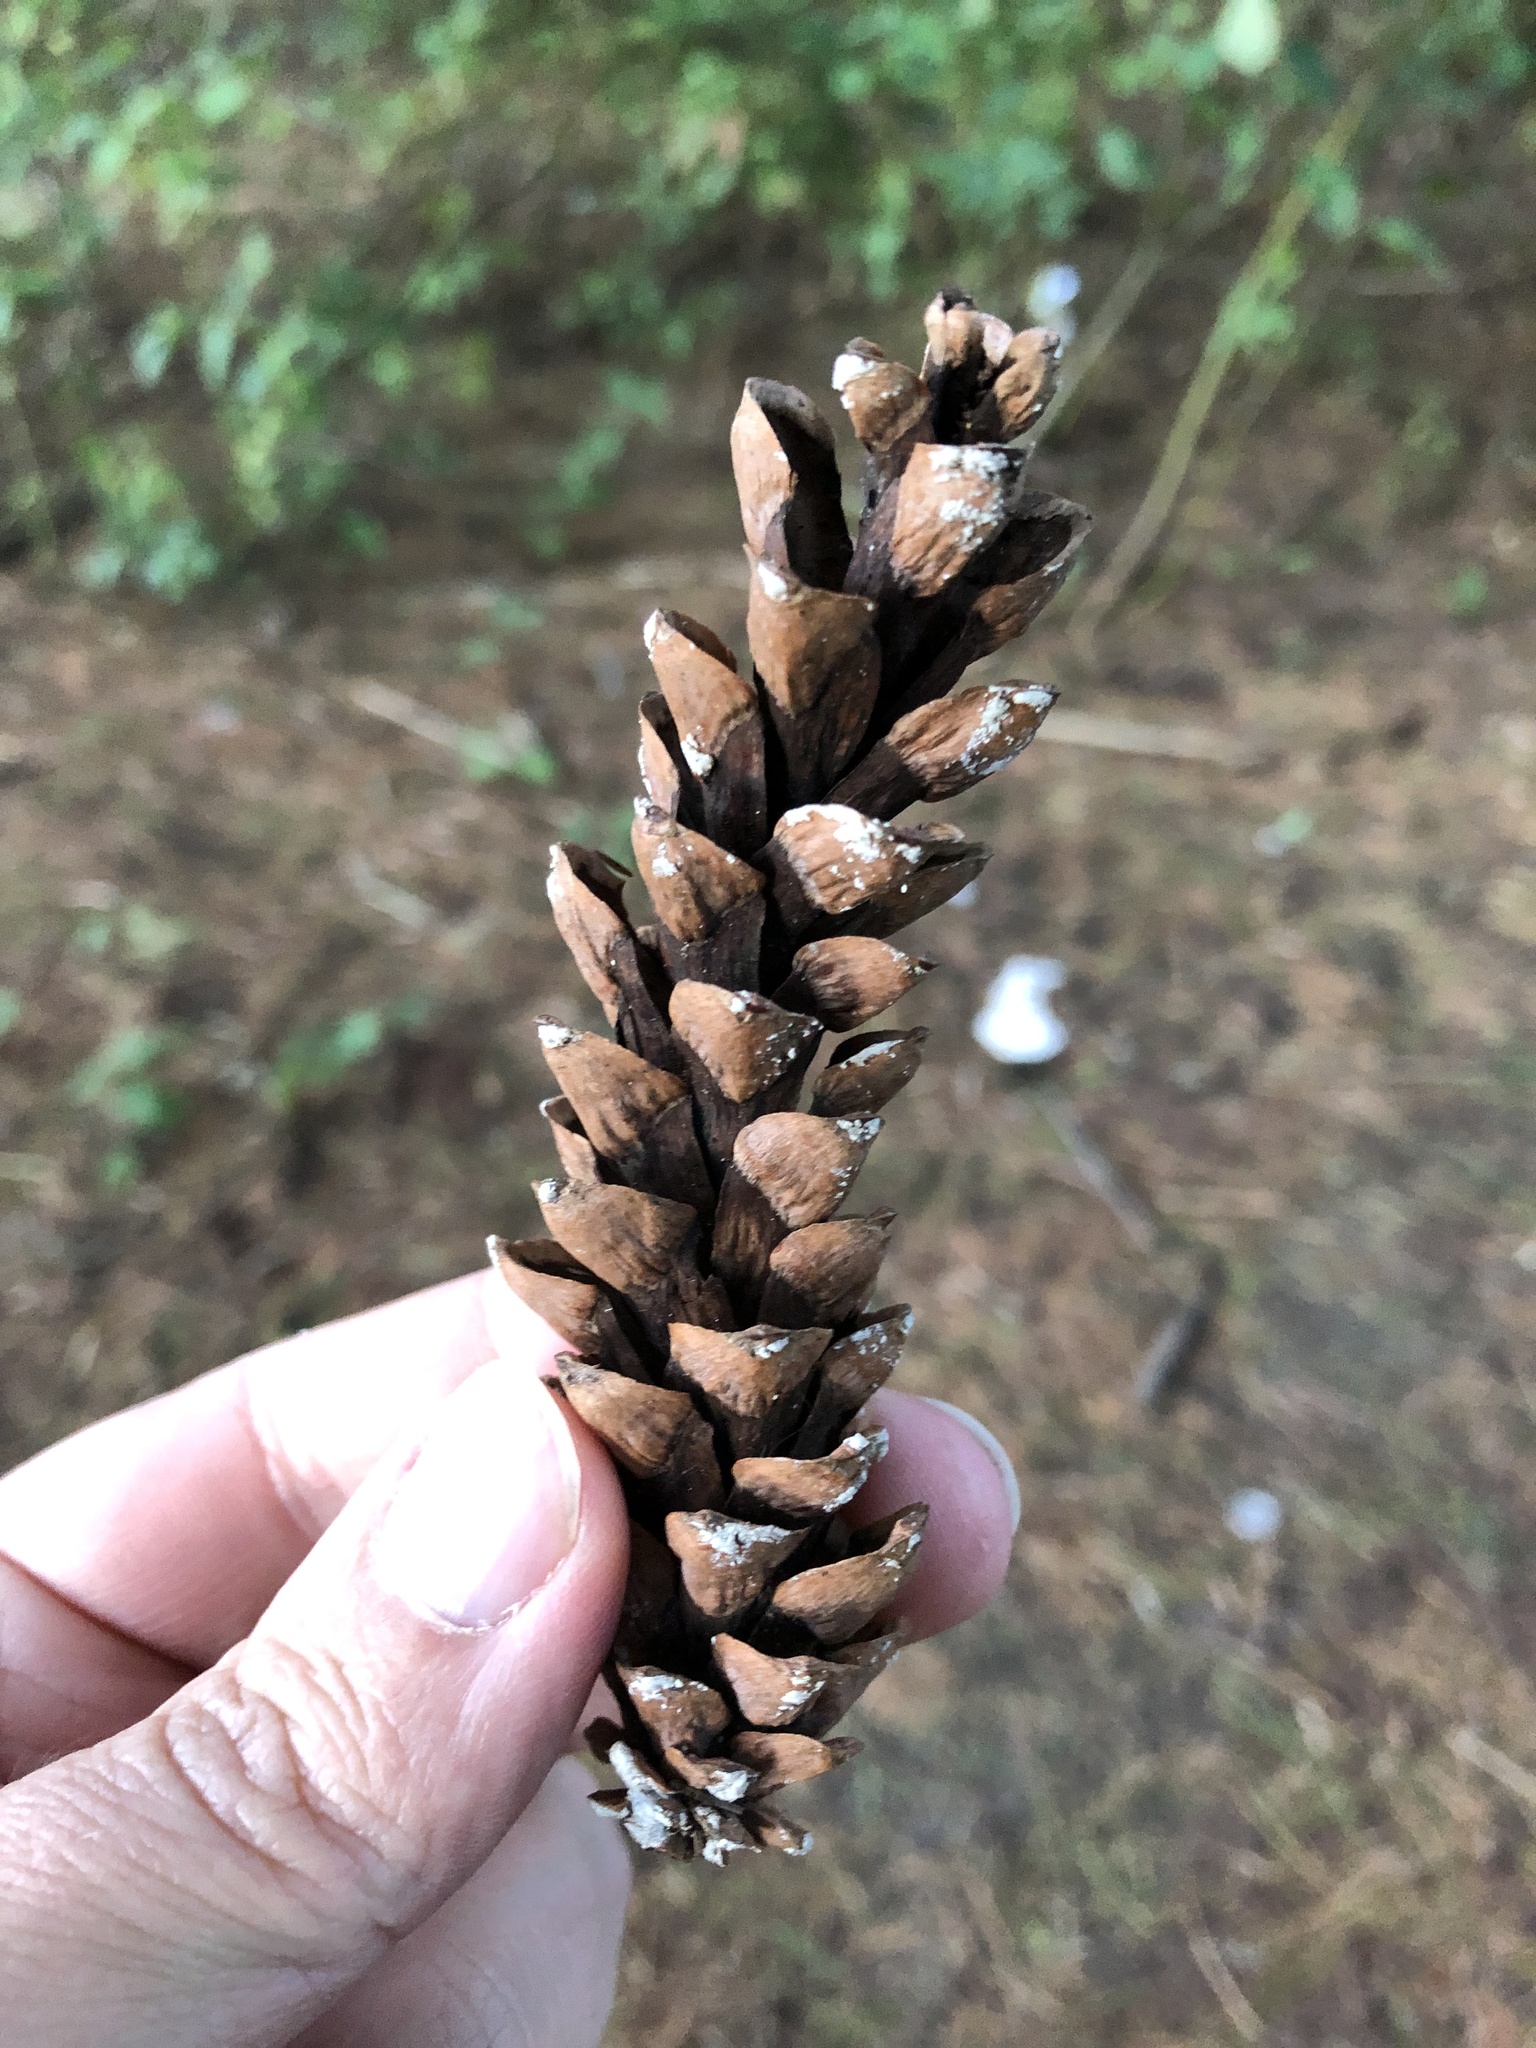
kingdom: Plantae
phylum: Tracheophyta
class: Pinopsida
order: Pinales
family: Pinaceae
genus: Pinus
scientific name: Pinus strobus
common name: Weymouth pine
